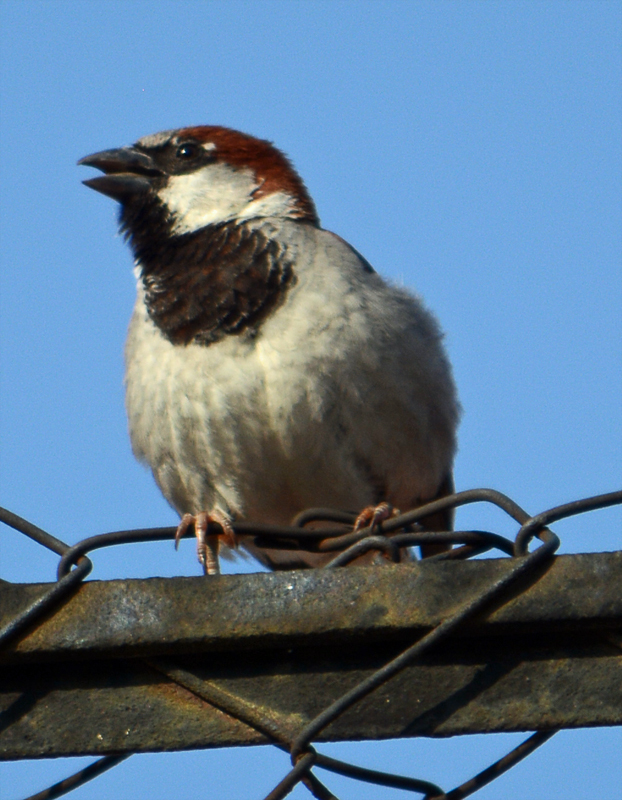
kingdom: Animalia
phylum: Chordata
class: Aves
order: Passeriformes
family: Passeridae
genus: Passer
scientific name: Passer domesticus
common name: House sparrow
